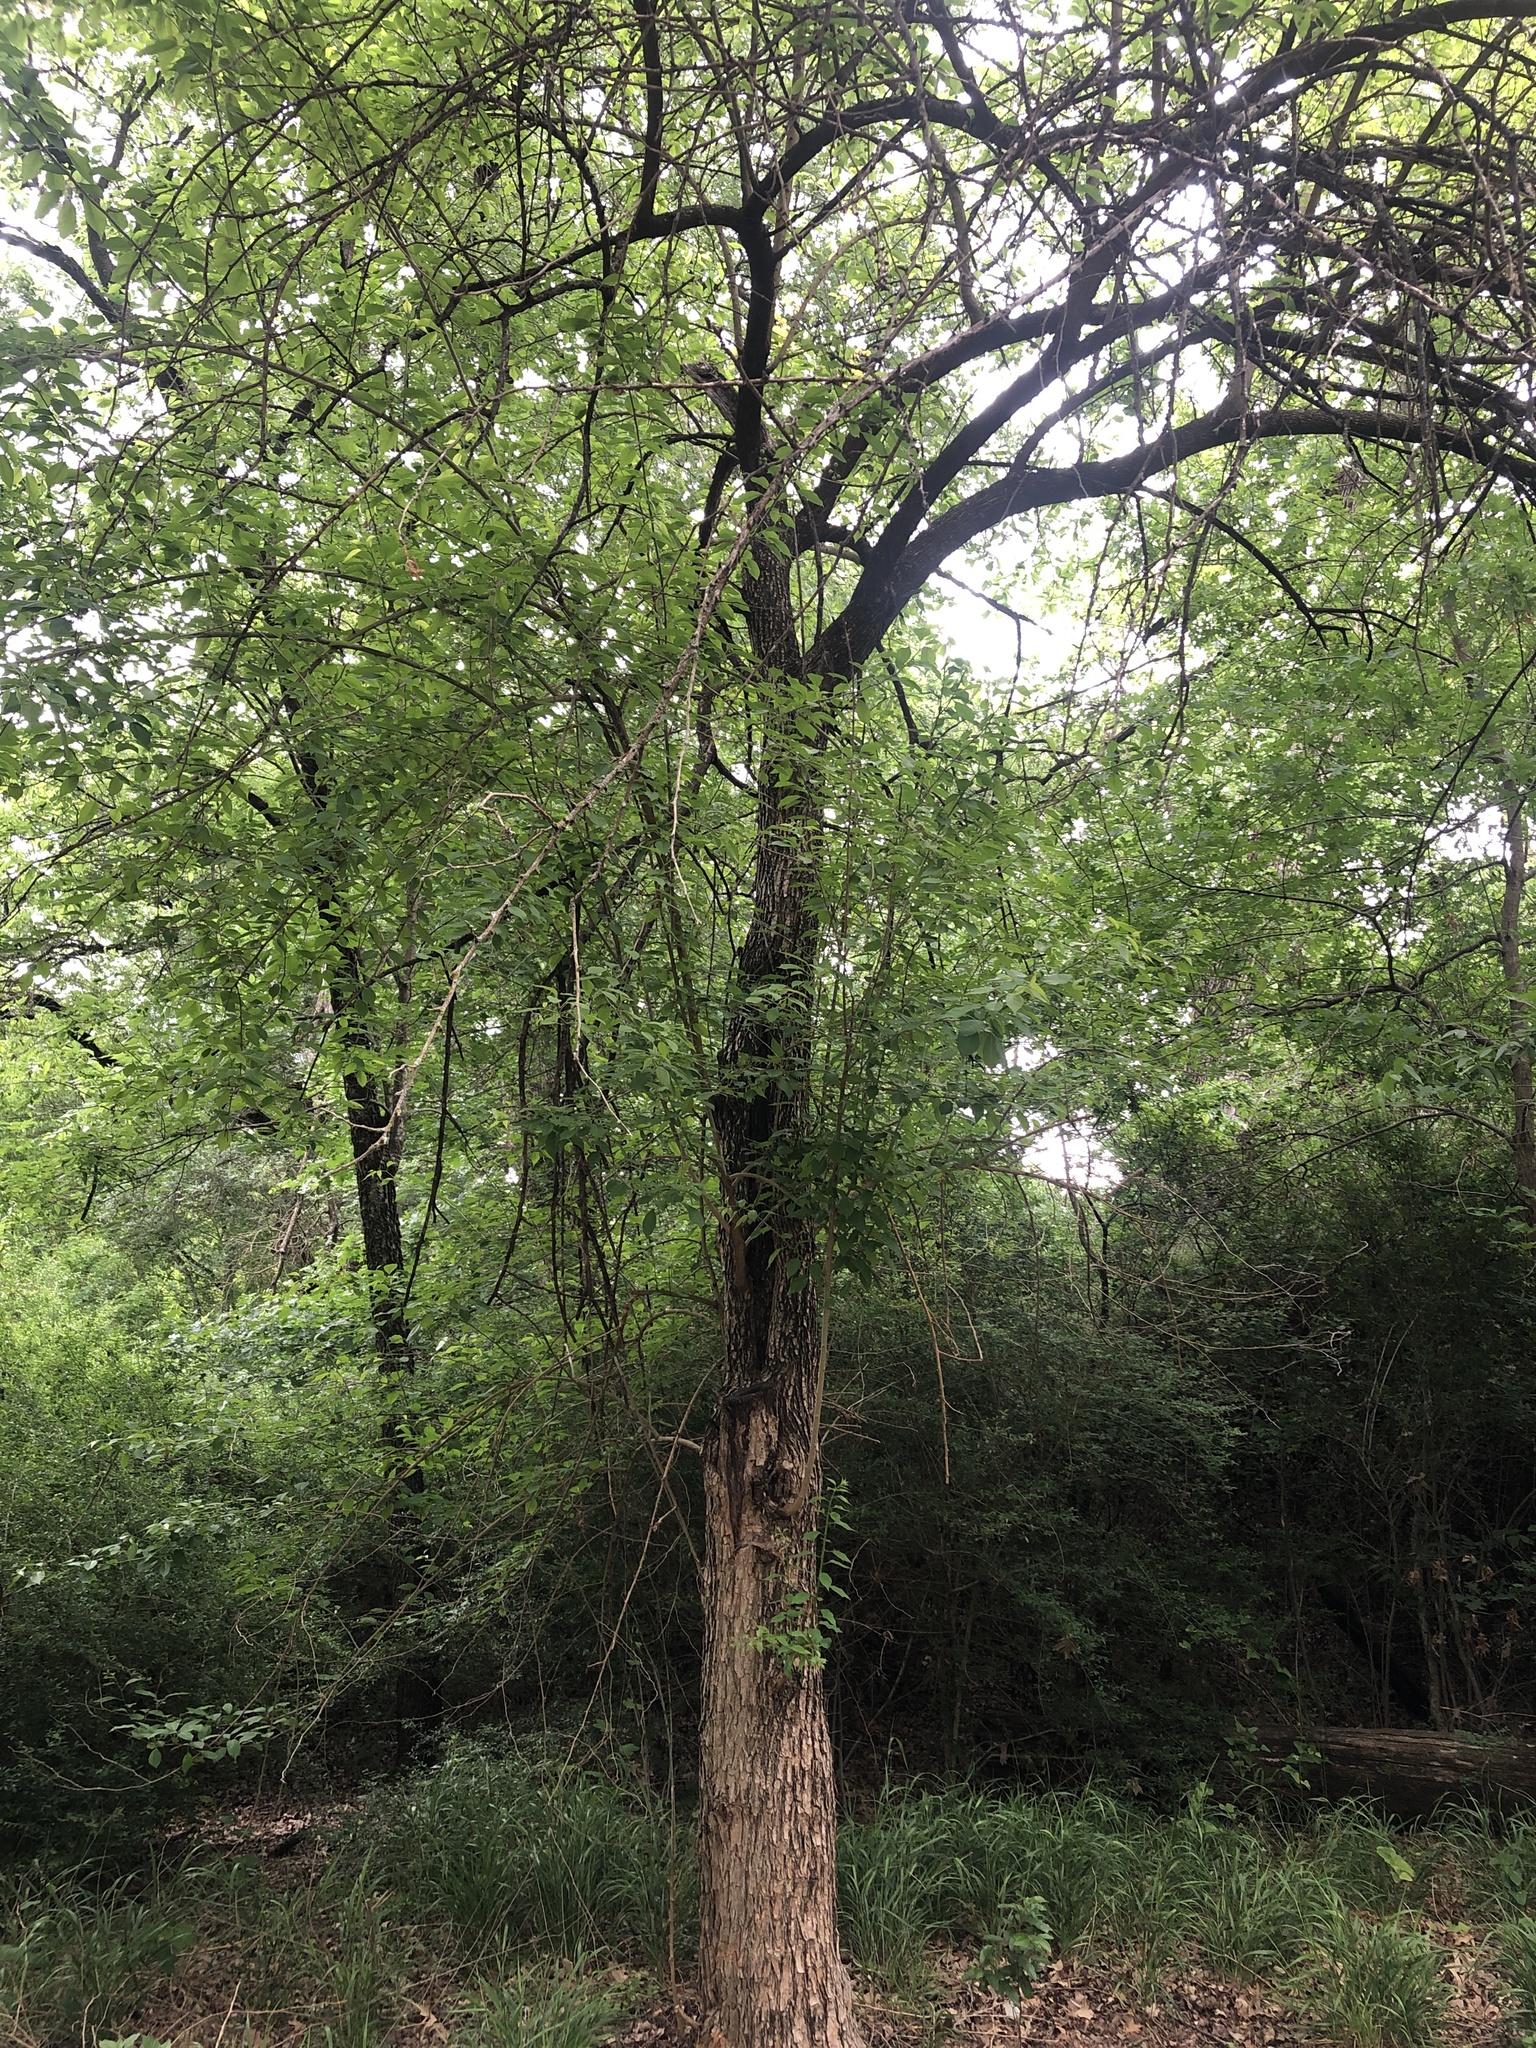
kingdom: Plantae
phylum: Tracheophyta
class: Magnoliopsida
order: Rosales
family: Moraceae
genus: Maclura
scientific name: Maclura pomifera
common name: Osage-orange
